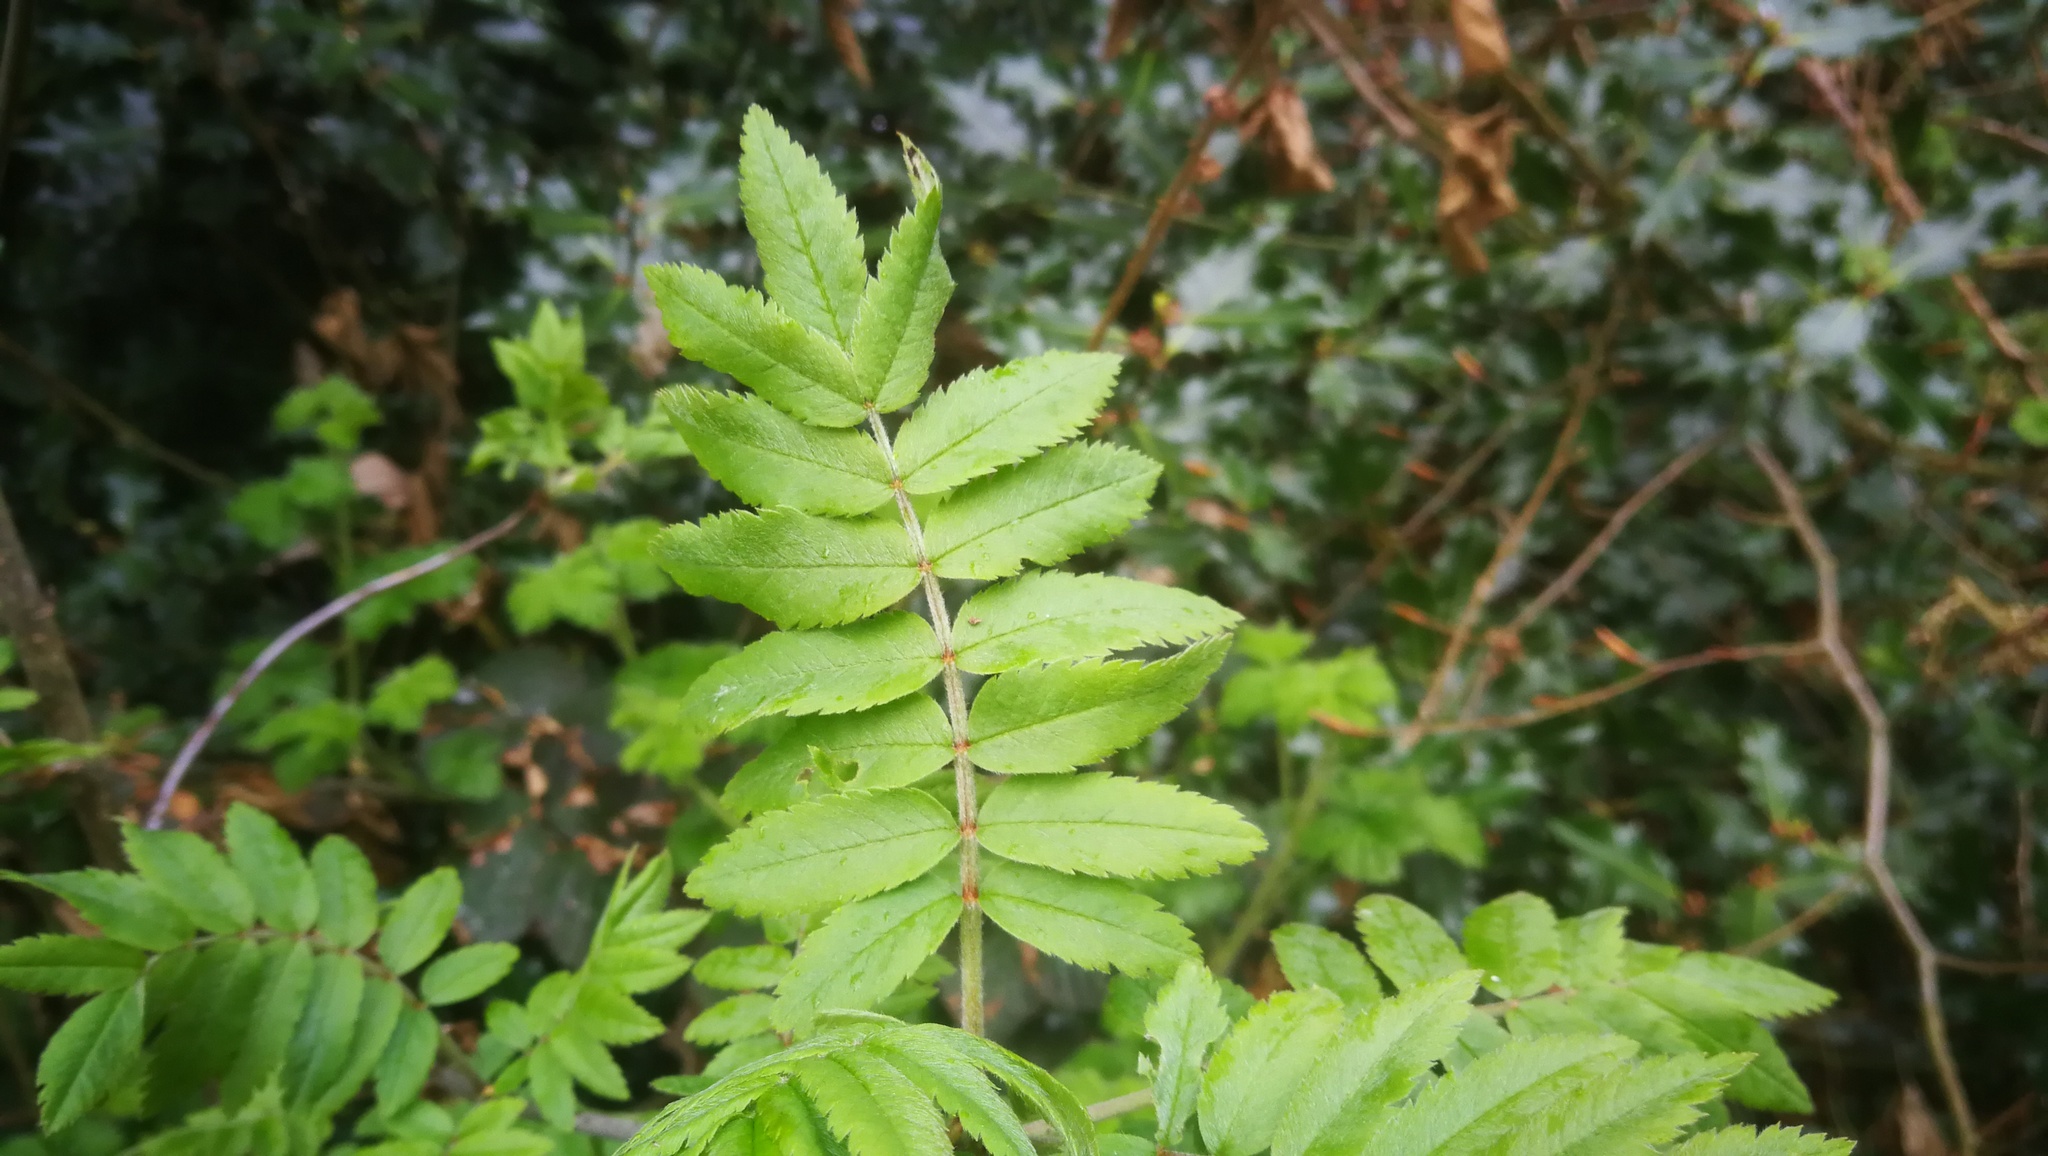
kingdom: Plantae
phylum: Tracheophyta
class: Magnoliopsida
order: Rosales
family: Rosaceae
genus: Sorbus
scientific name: Sorbus aucuparia
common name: Rowan
